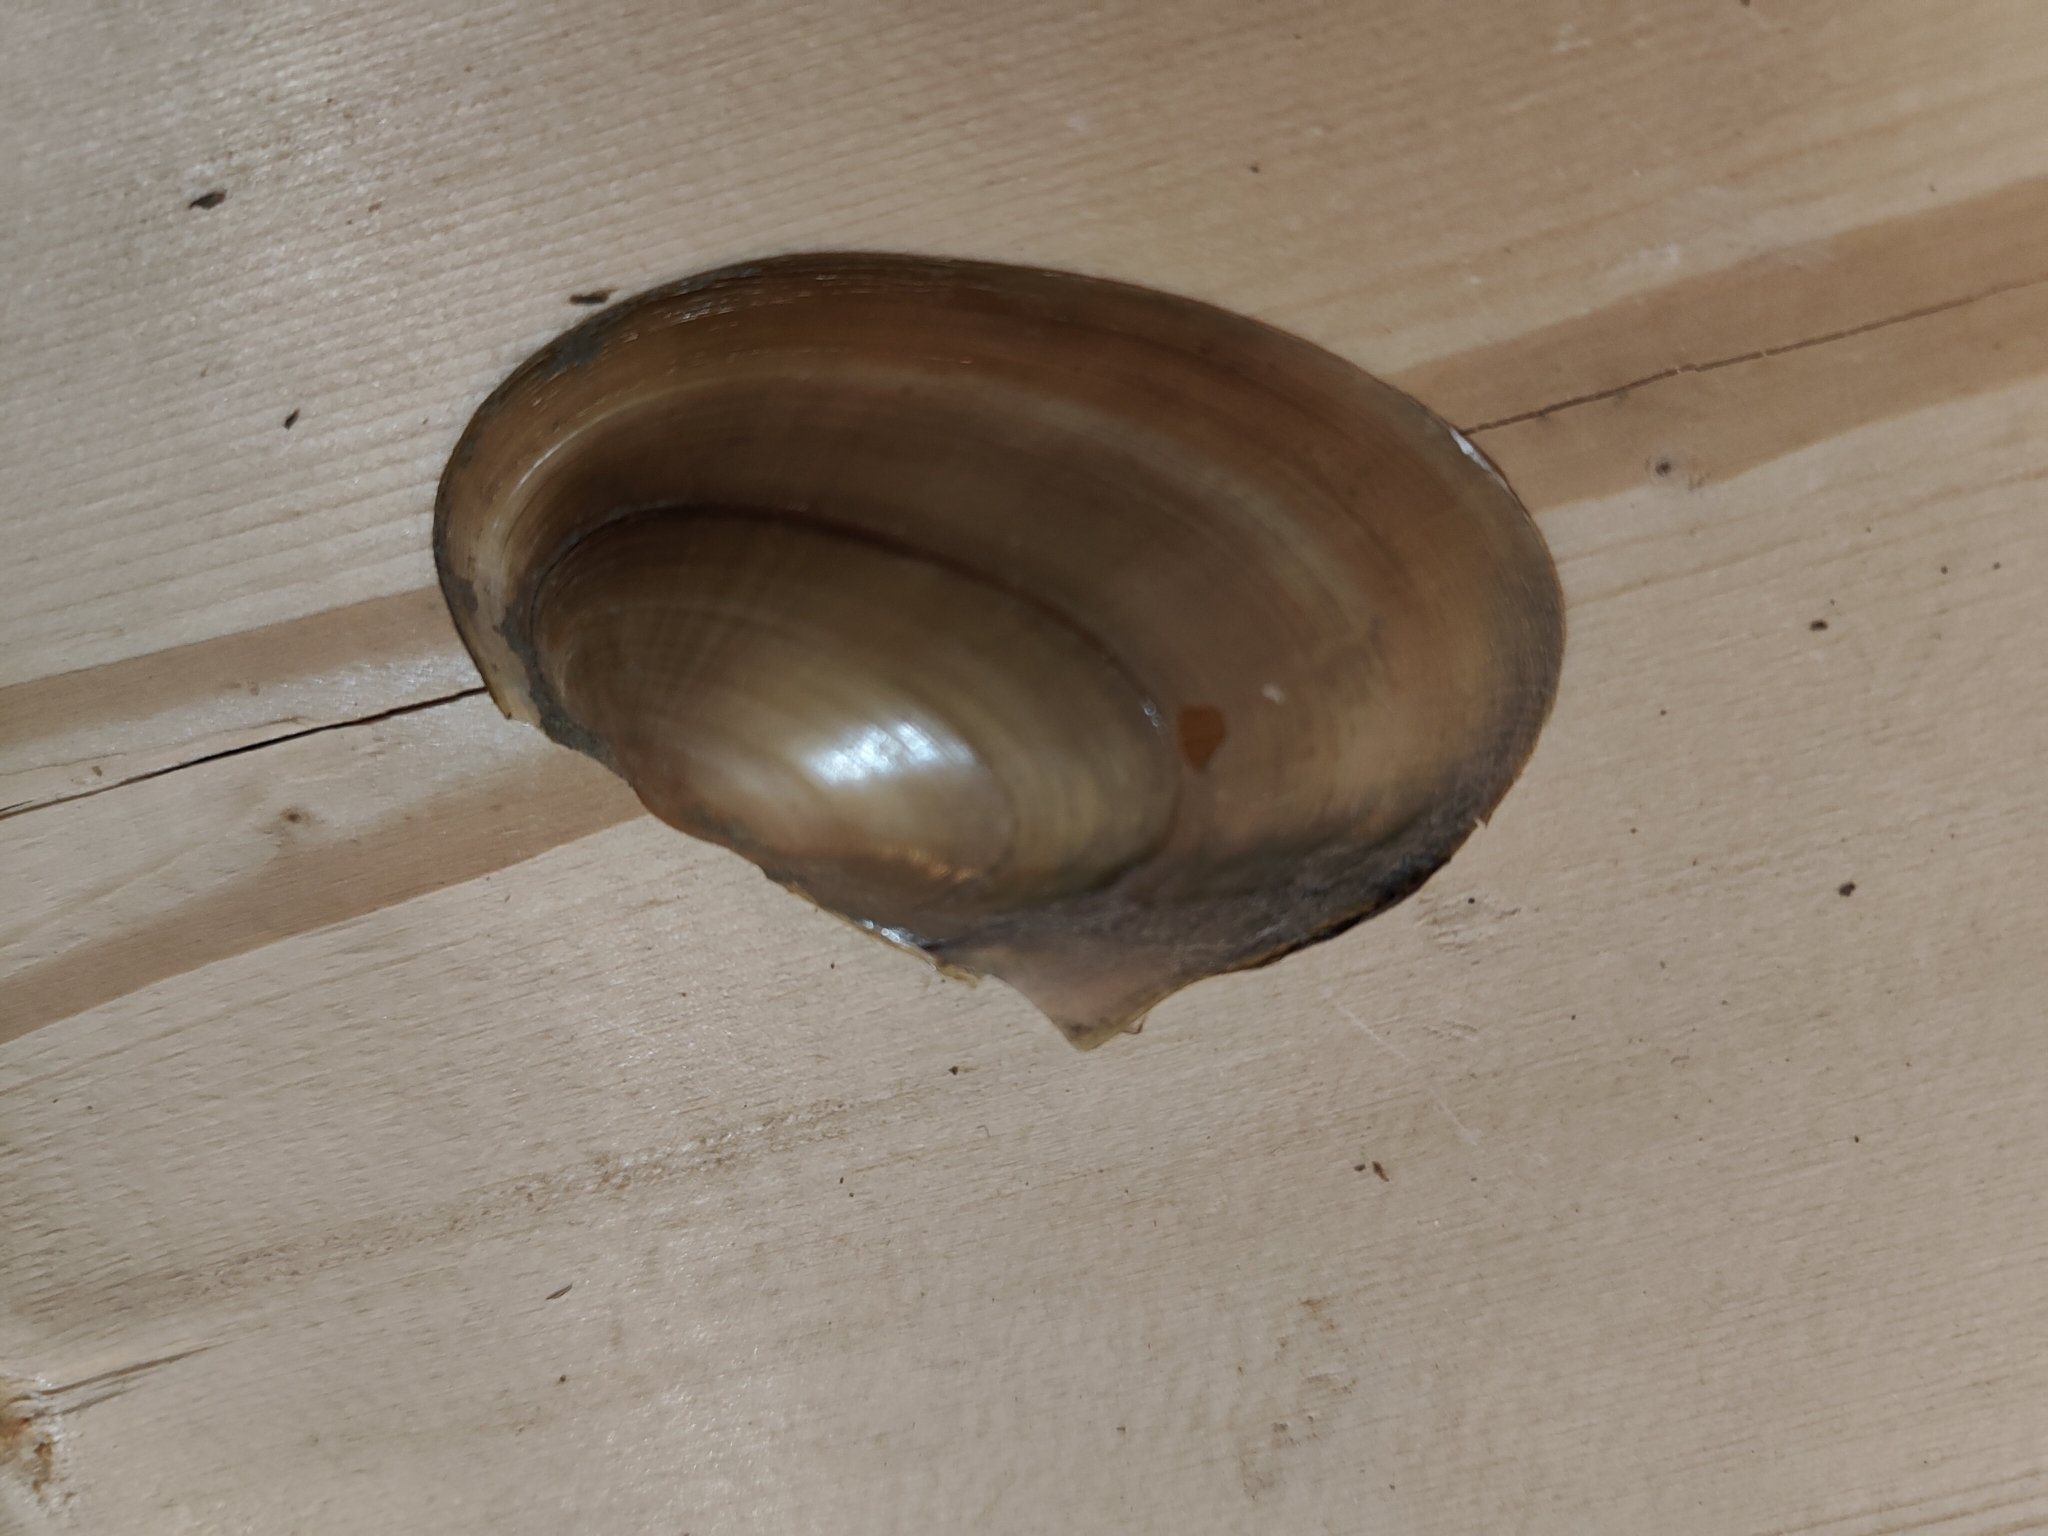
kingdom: Animalia
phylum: Mollusca
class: Bivalvia
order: Unionida
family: Unionidae
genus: Potamilus
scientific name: Potamilus fragilis
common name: Fragile papershell
